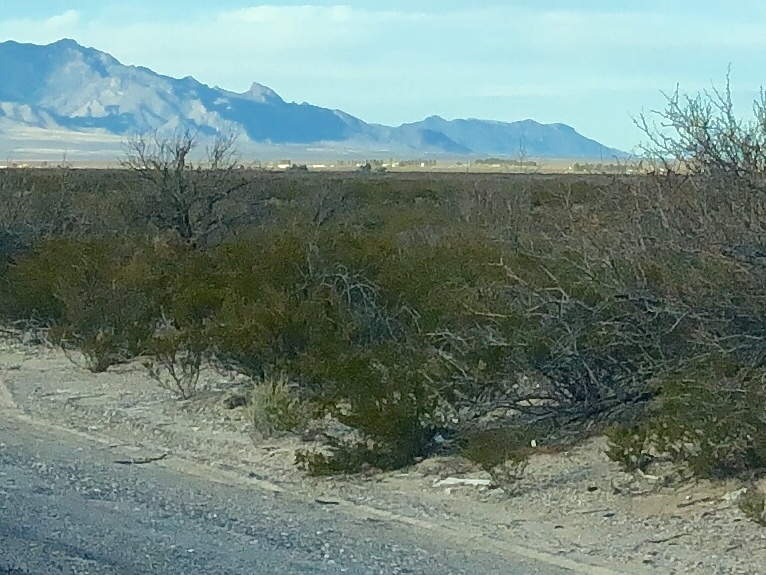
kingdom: Plantae
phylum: Tracheophyta
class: Magnoliopsida
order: Zygophyllales
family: Zygophyllaceae
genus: Larrea
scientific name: Larrea tridentata
